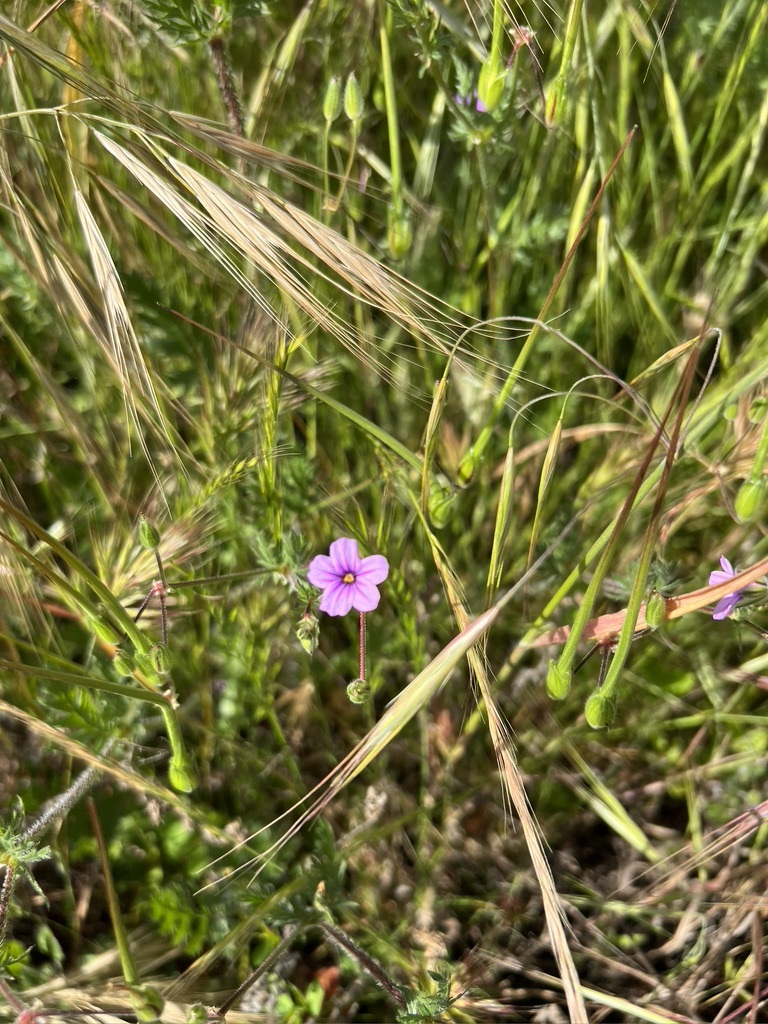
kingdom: Plantae
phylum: Tracheophyta
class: Magnoliopsida
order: Geraniales
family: Geraniaceae
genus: Erodium
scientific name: Erodium botrys
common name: Mediterranean stork's-bill
